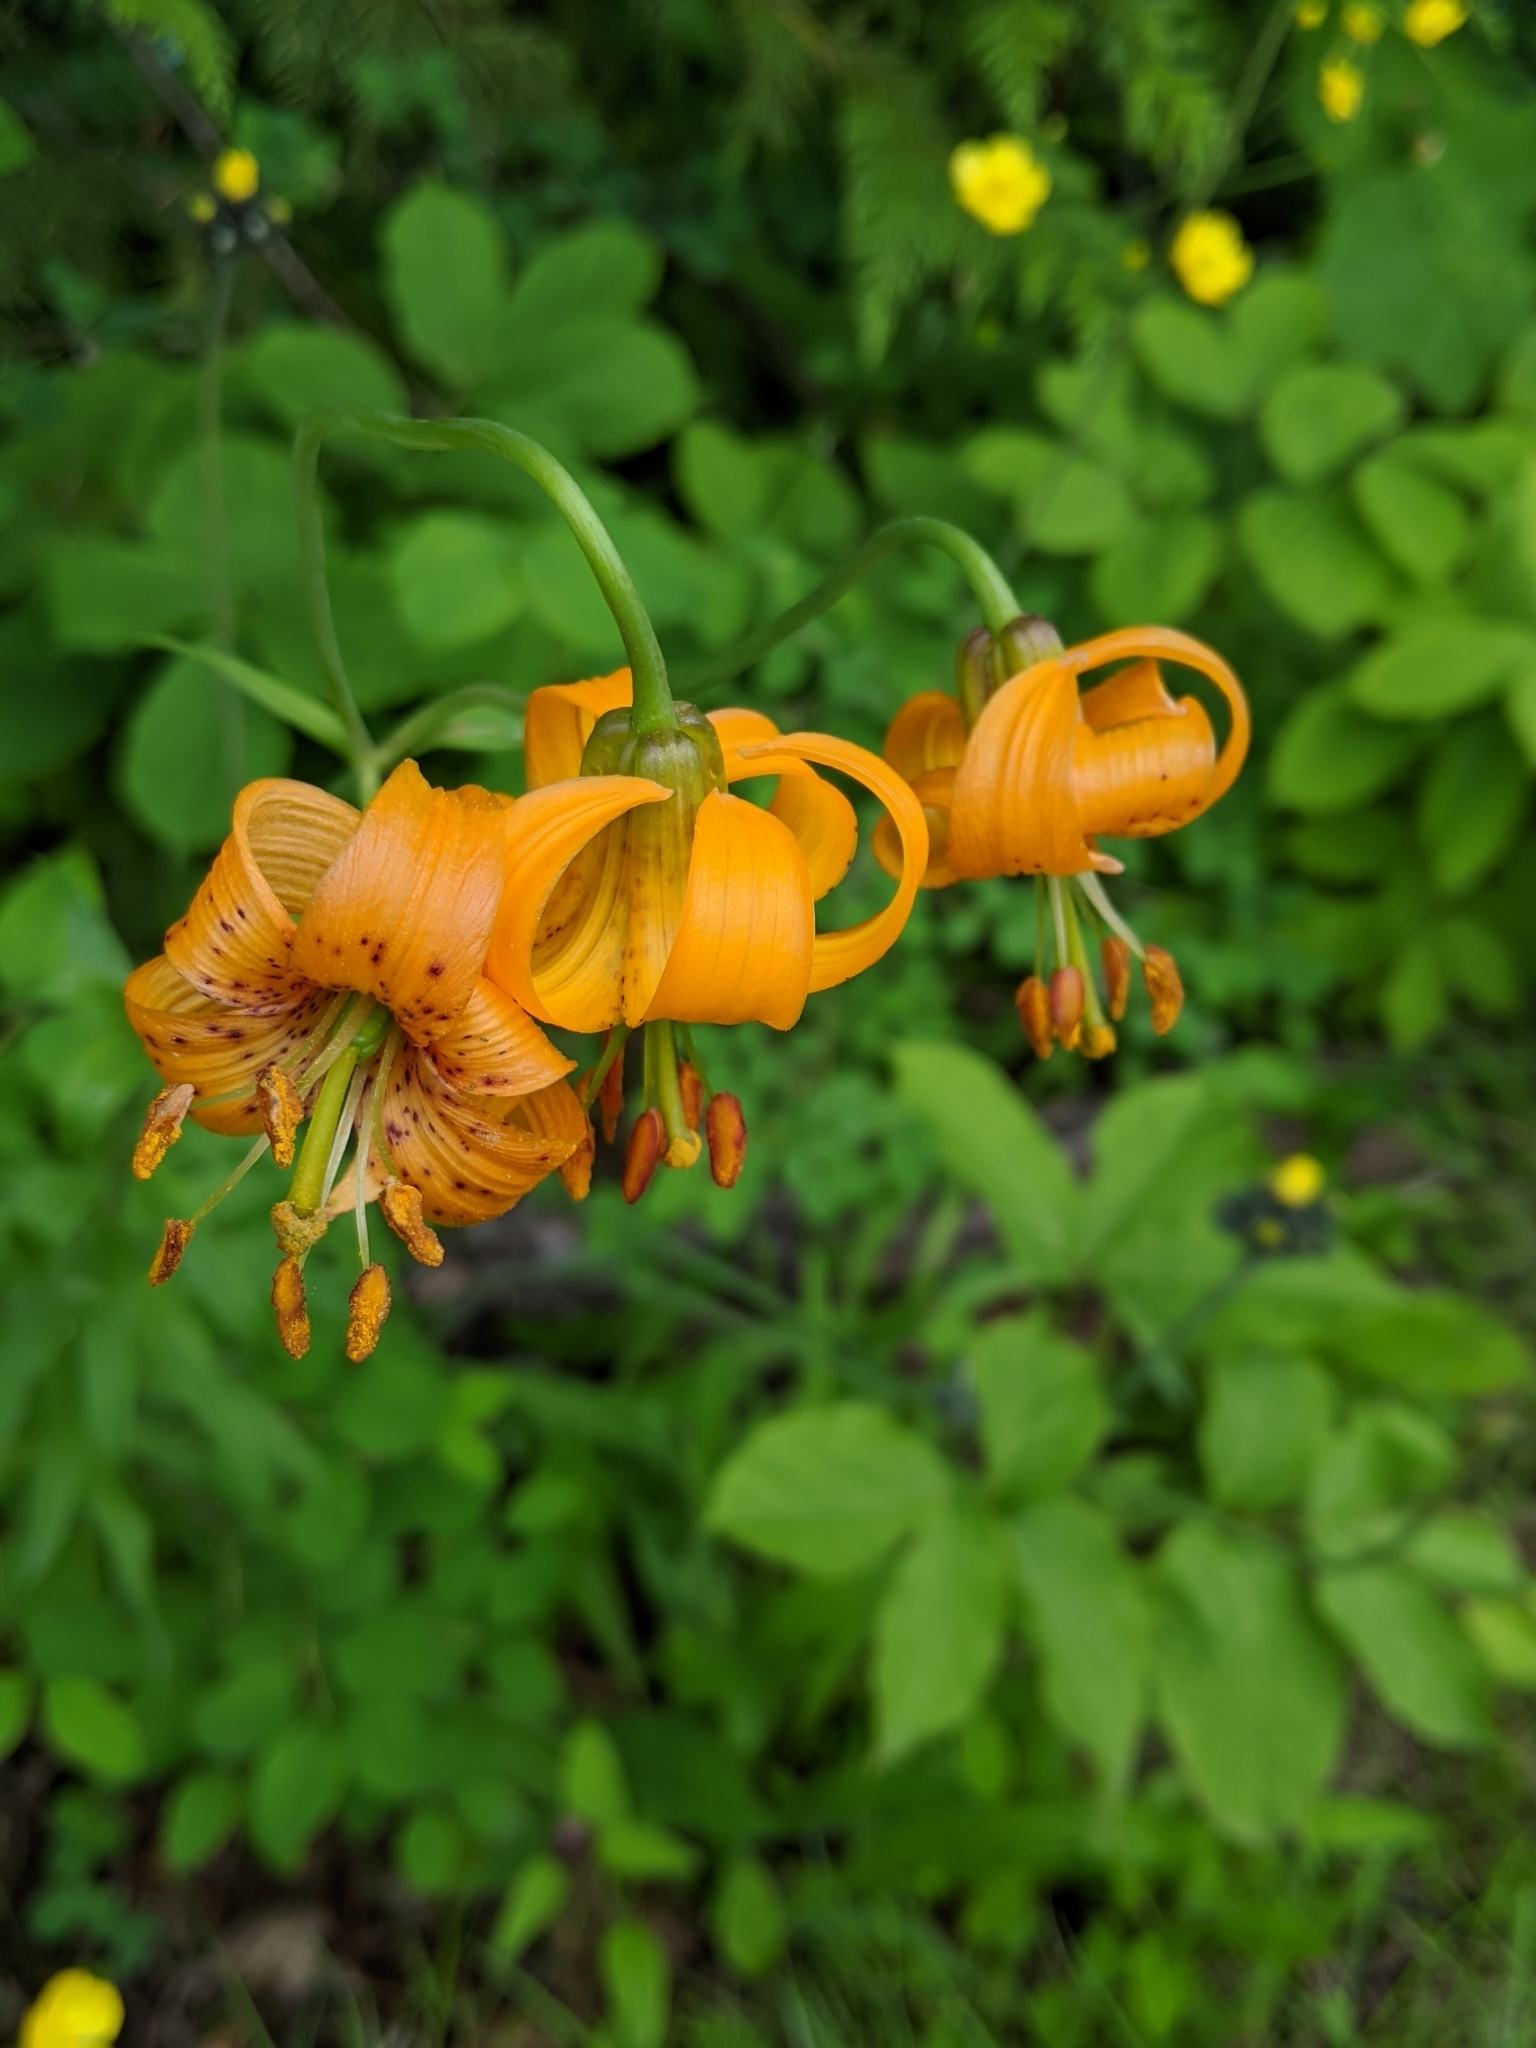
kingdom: Plantae
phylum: Tracheophyta
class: Liliopsida
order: Liliales
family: Liliaceae
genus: Lilium
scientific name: Lilium columbianum
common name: Columbia lily
